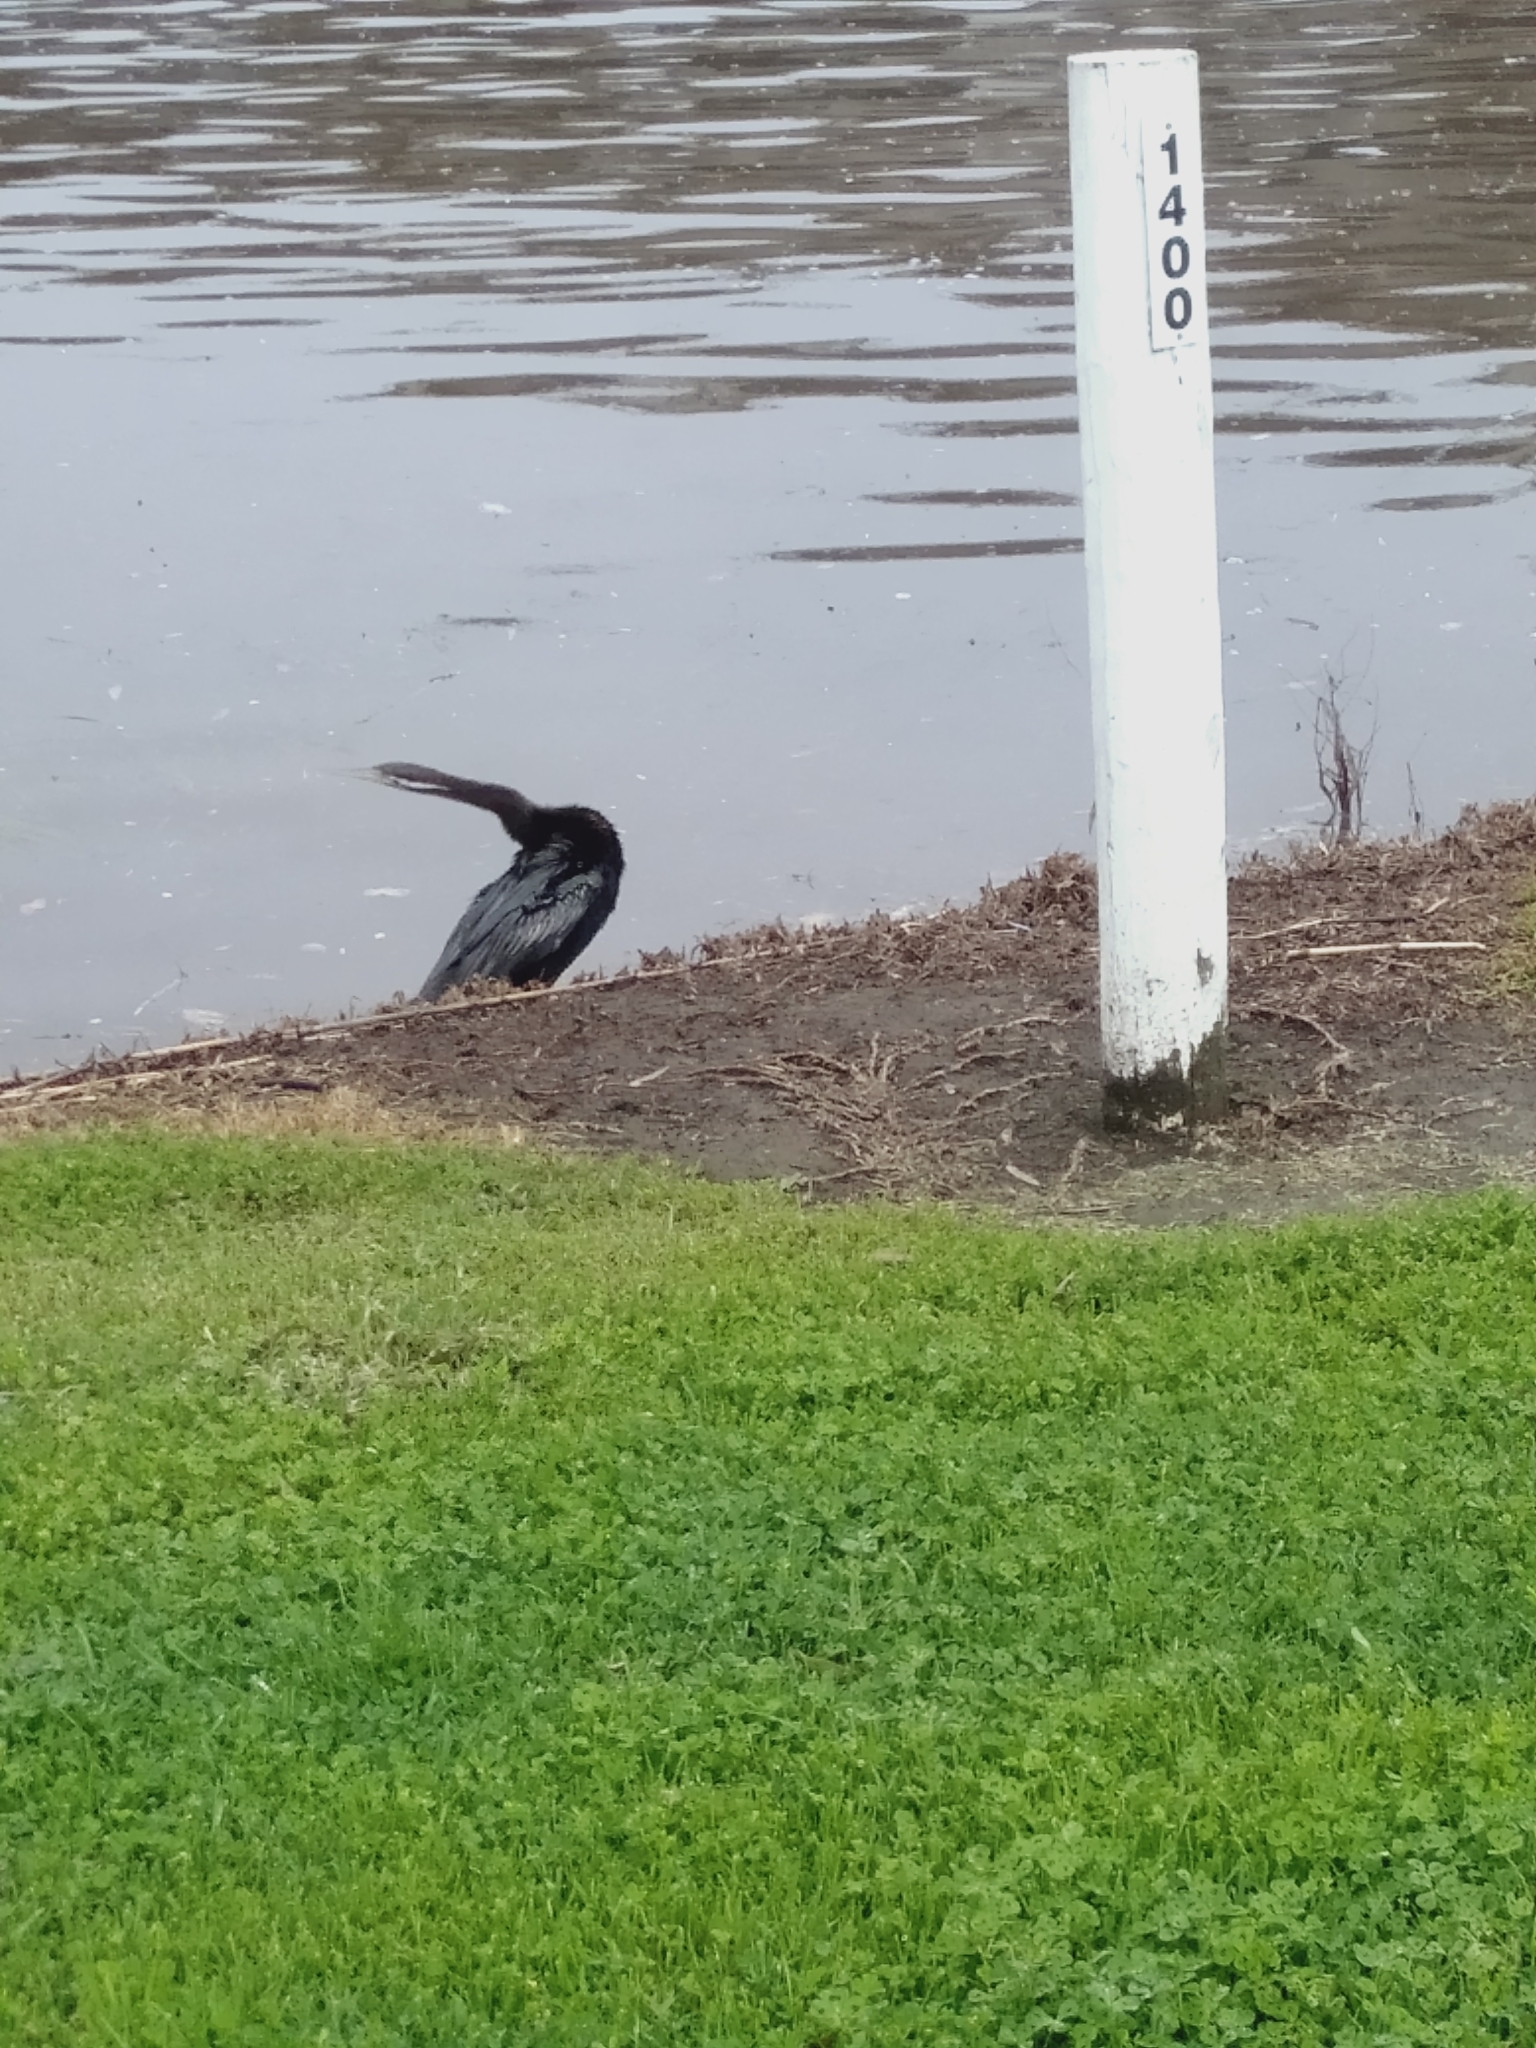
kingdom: Animalia
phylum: Chordata
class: Aves
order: Suliformes
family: Anhingidae
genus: Anhinga
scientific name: Anhinga novaehollandiae
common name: Australasian darter
